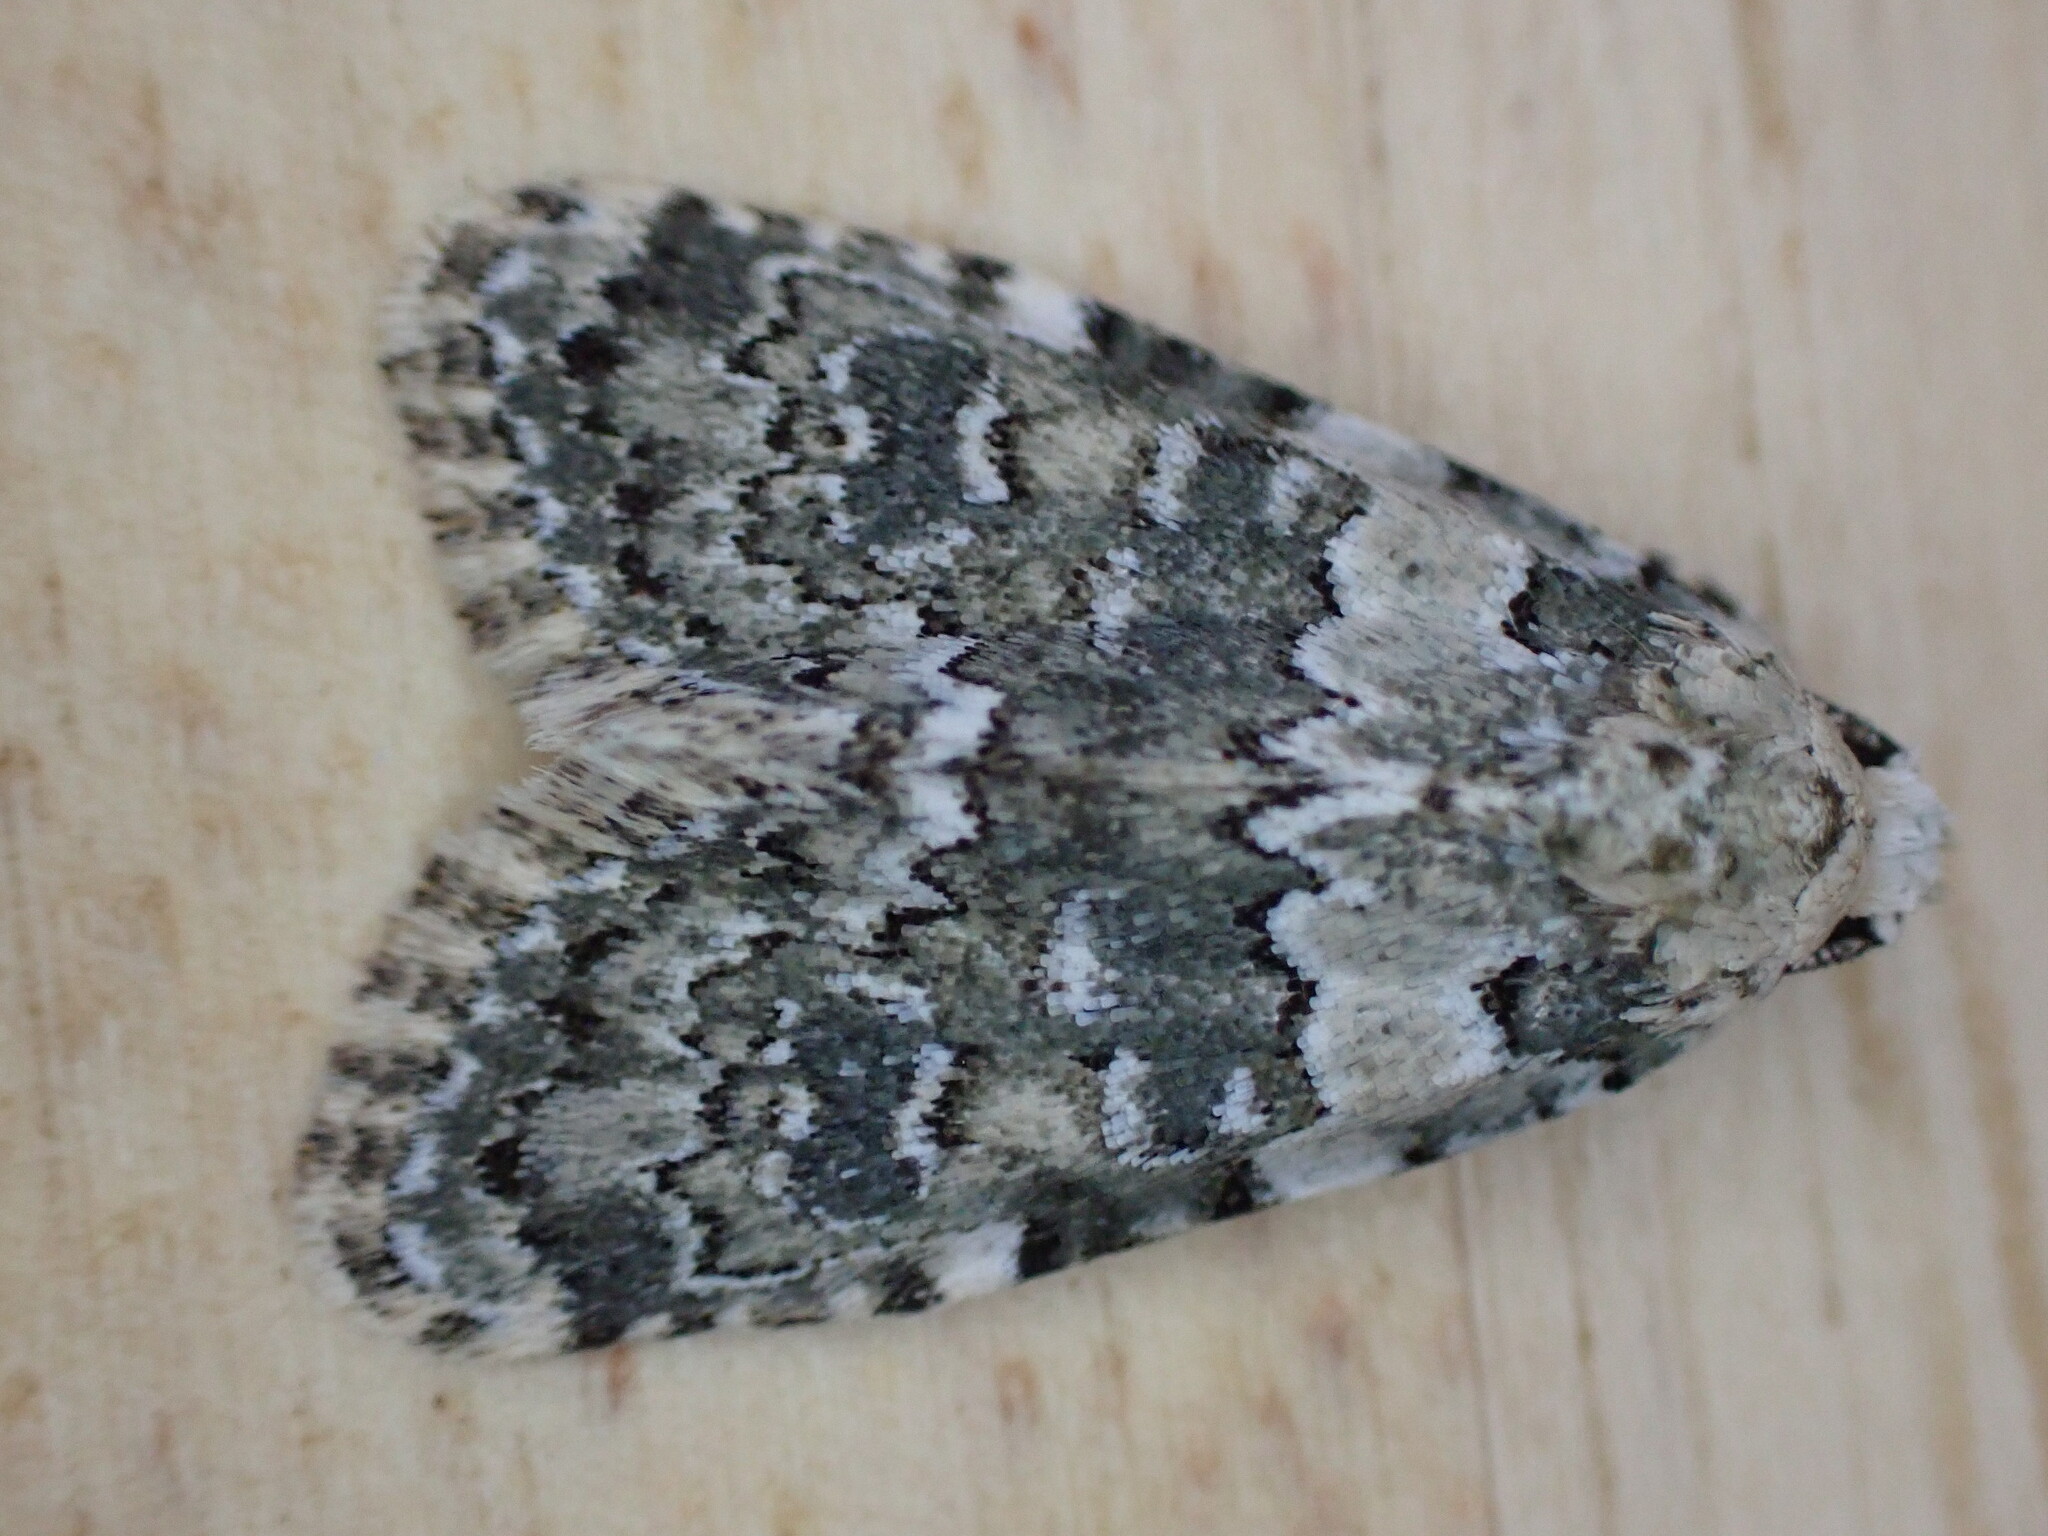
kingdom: Animalia
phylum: Arthropoda
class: Insecta
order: Lepidoptera
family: Noctuidae
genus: Bryophila
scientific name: Bryophila domestica
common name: Marbled beauty
